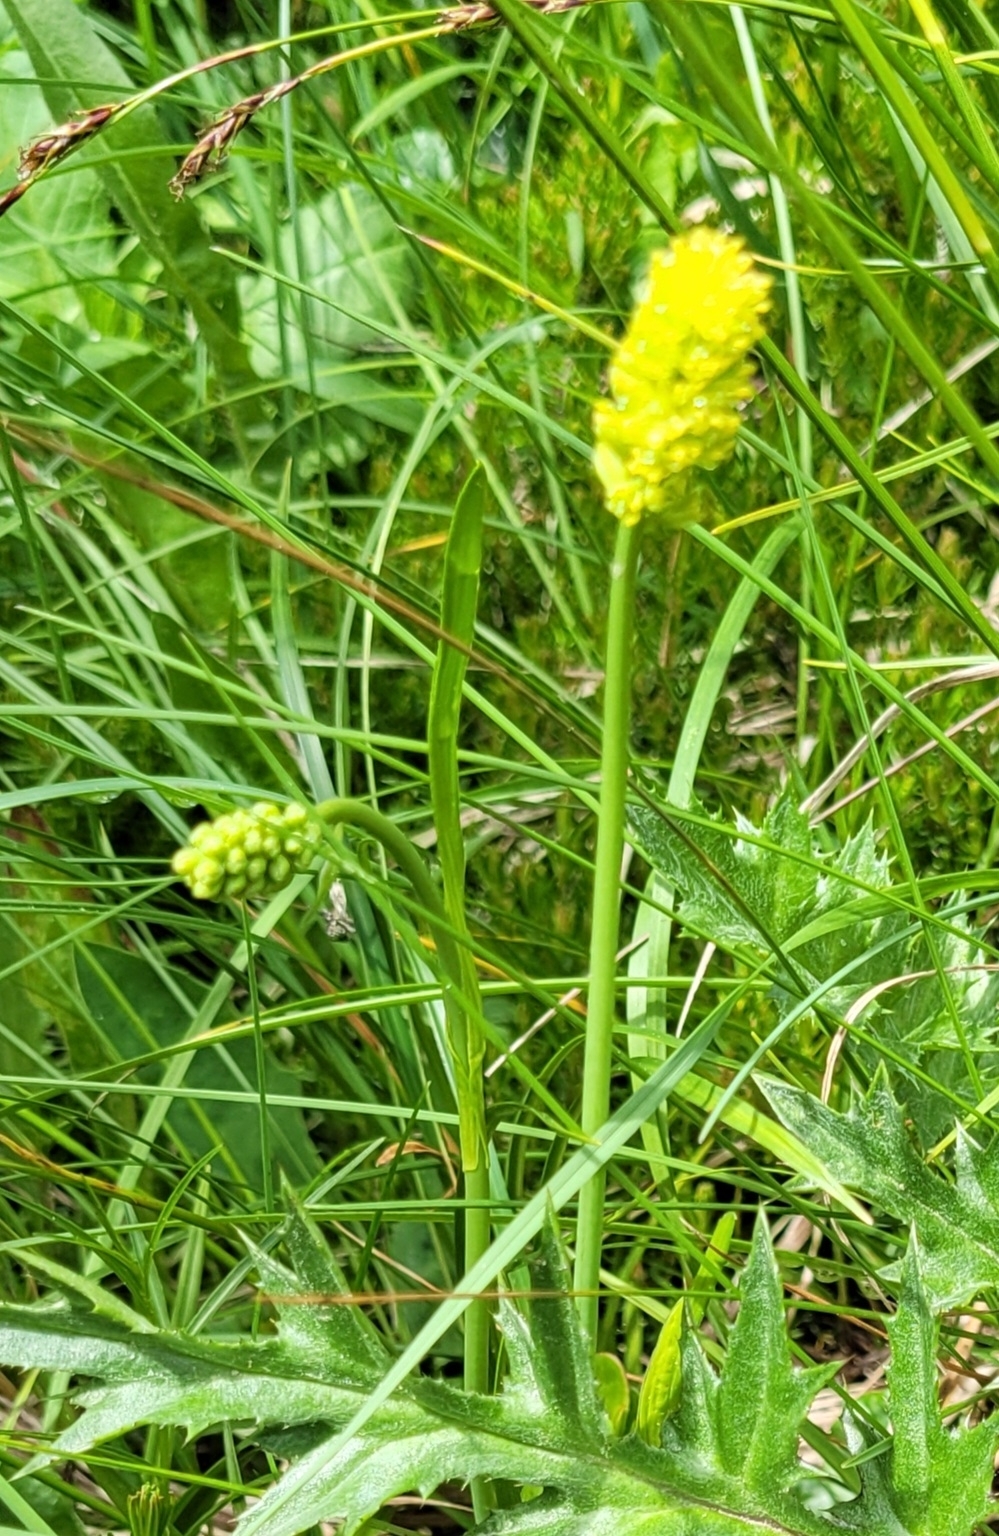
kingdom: Plantae
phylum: Tracheophyta
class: Liliopsida
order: Alismatales
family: Tofieldiaceae
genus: Tofieldia
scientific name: Tofieldia calyculata
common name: German-asphodel
